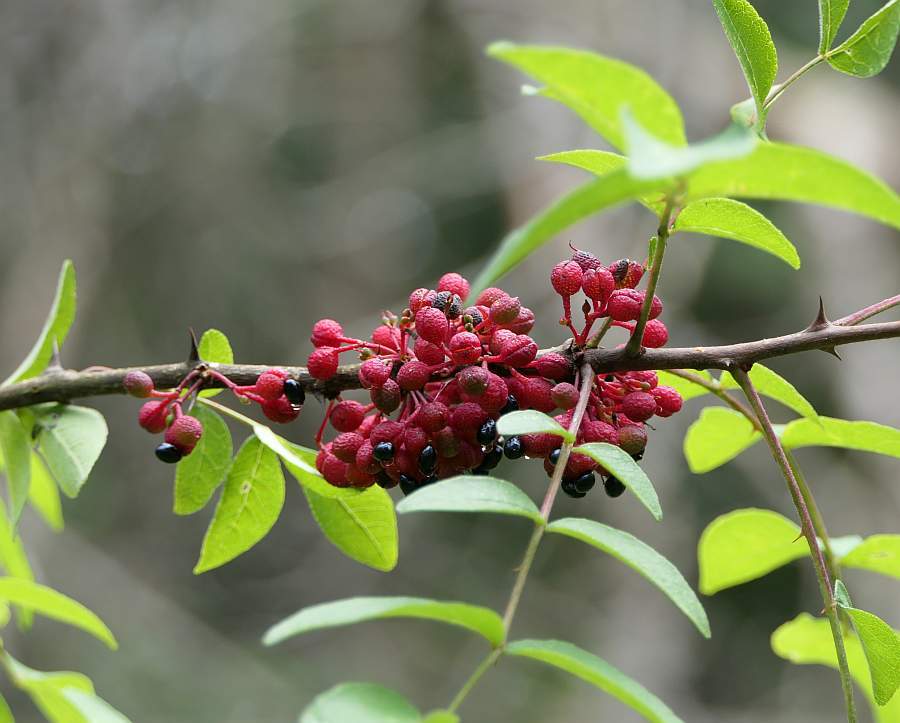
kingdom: Plantae
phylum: Tracheophyta
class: Magnoliopsida
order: Sapindales
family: Rutaceae
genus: Zanthoxylum
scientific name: Zanthoxylum americanum
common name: Northern prickly-ash
